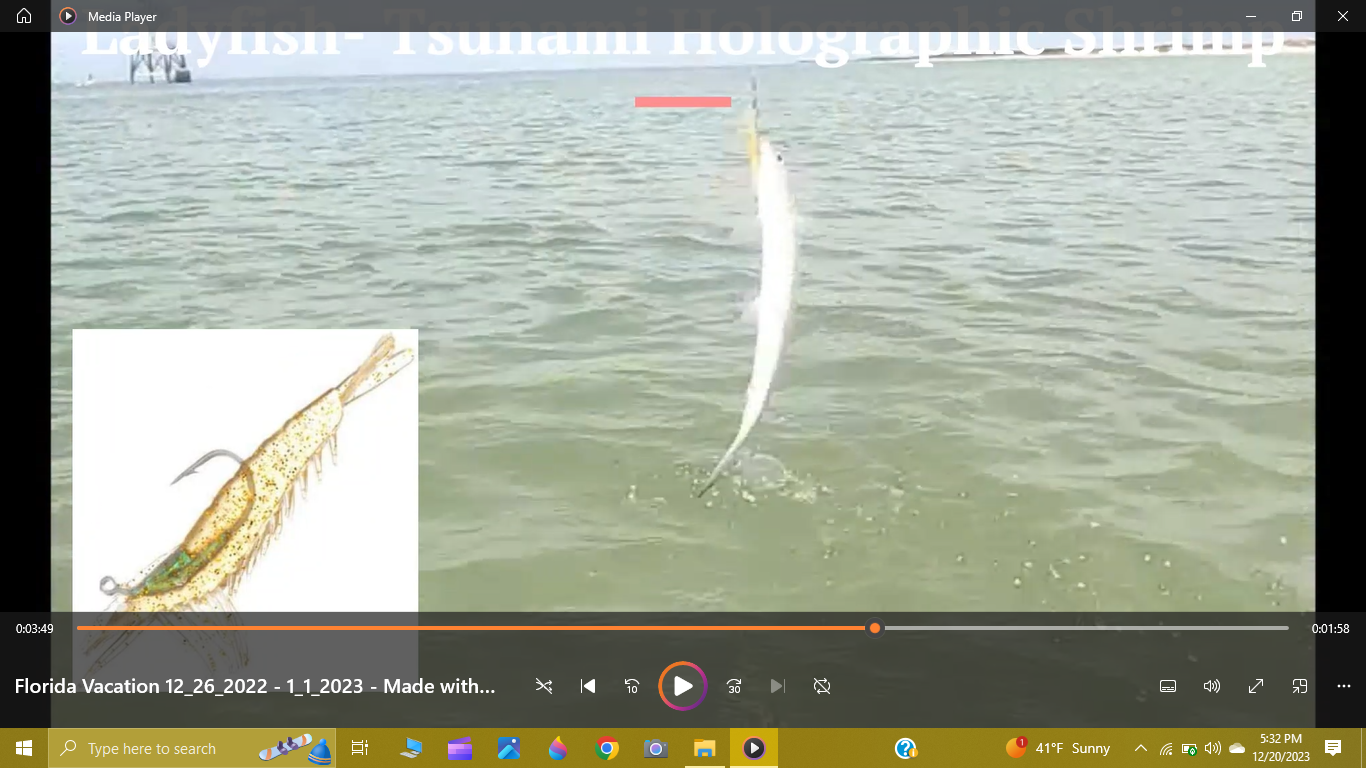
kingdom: Animalia
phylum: Chordata
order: Elopiformes
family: Elopidae
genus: Elops
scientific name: Elops saurus
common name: Ladyfish
